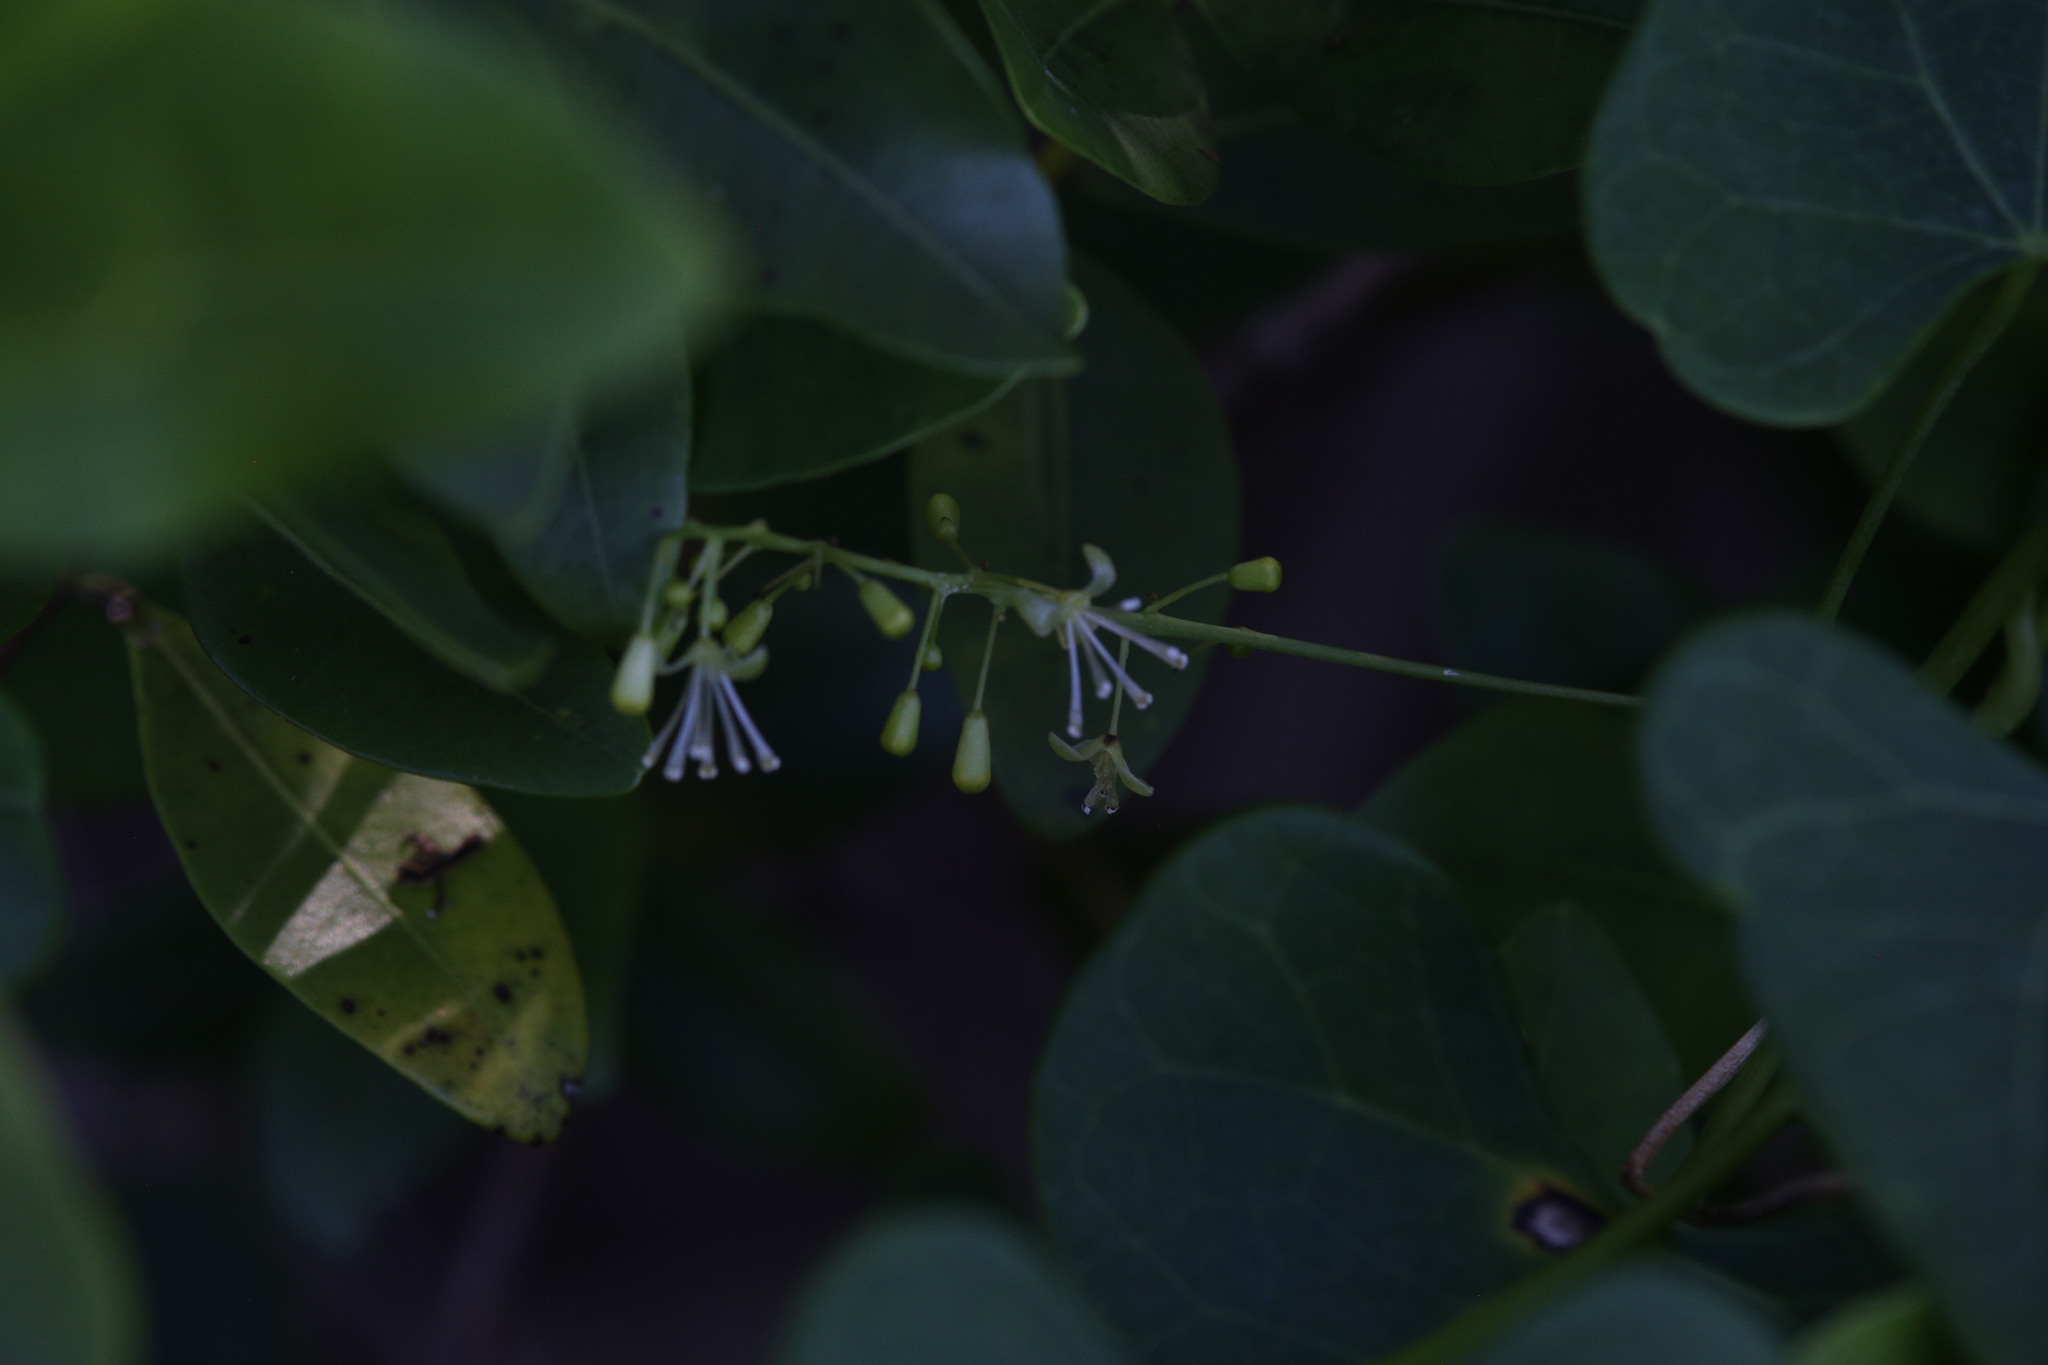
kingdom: Plantae
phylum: Tracheophyta
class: Magnoliopsida
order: Ranunculales
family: Menispermaceae
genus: Tinospora
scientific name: Tinospora smilacina
